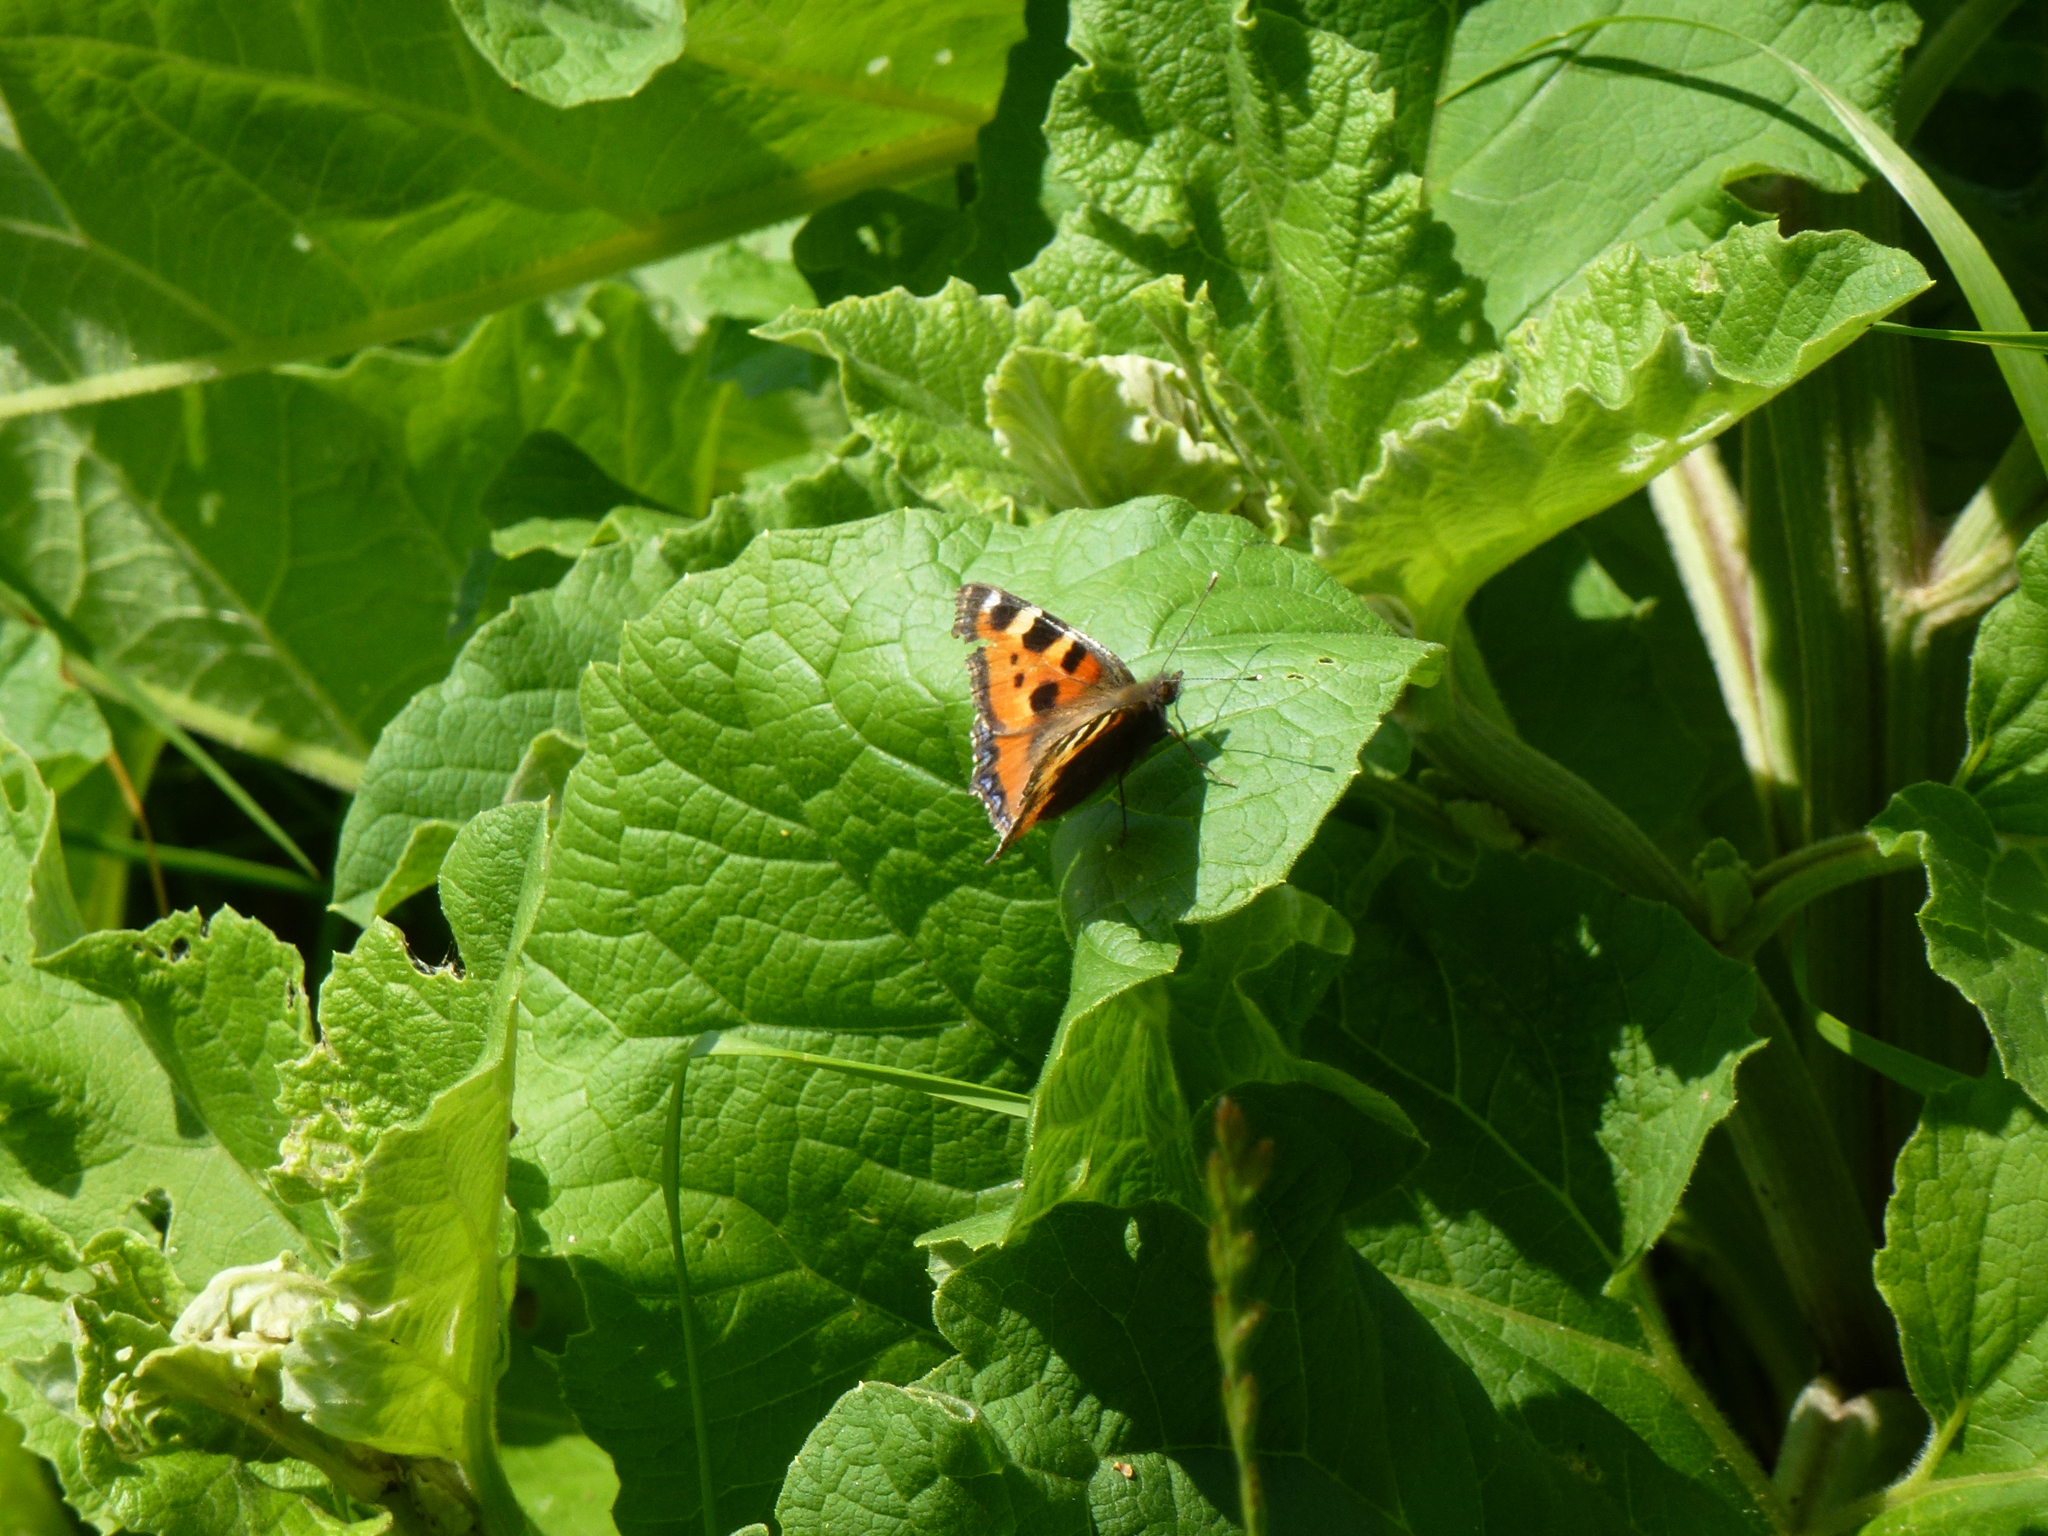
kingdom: Animalia
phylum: Arthropoda
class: Insecta
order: Lepidoptera
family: Nymphalidae
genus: Aglais
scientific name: Aglais urticae
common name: Small tortoiseshell
